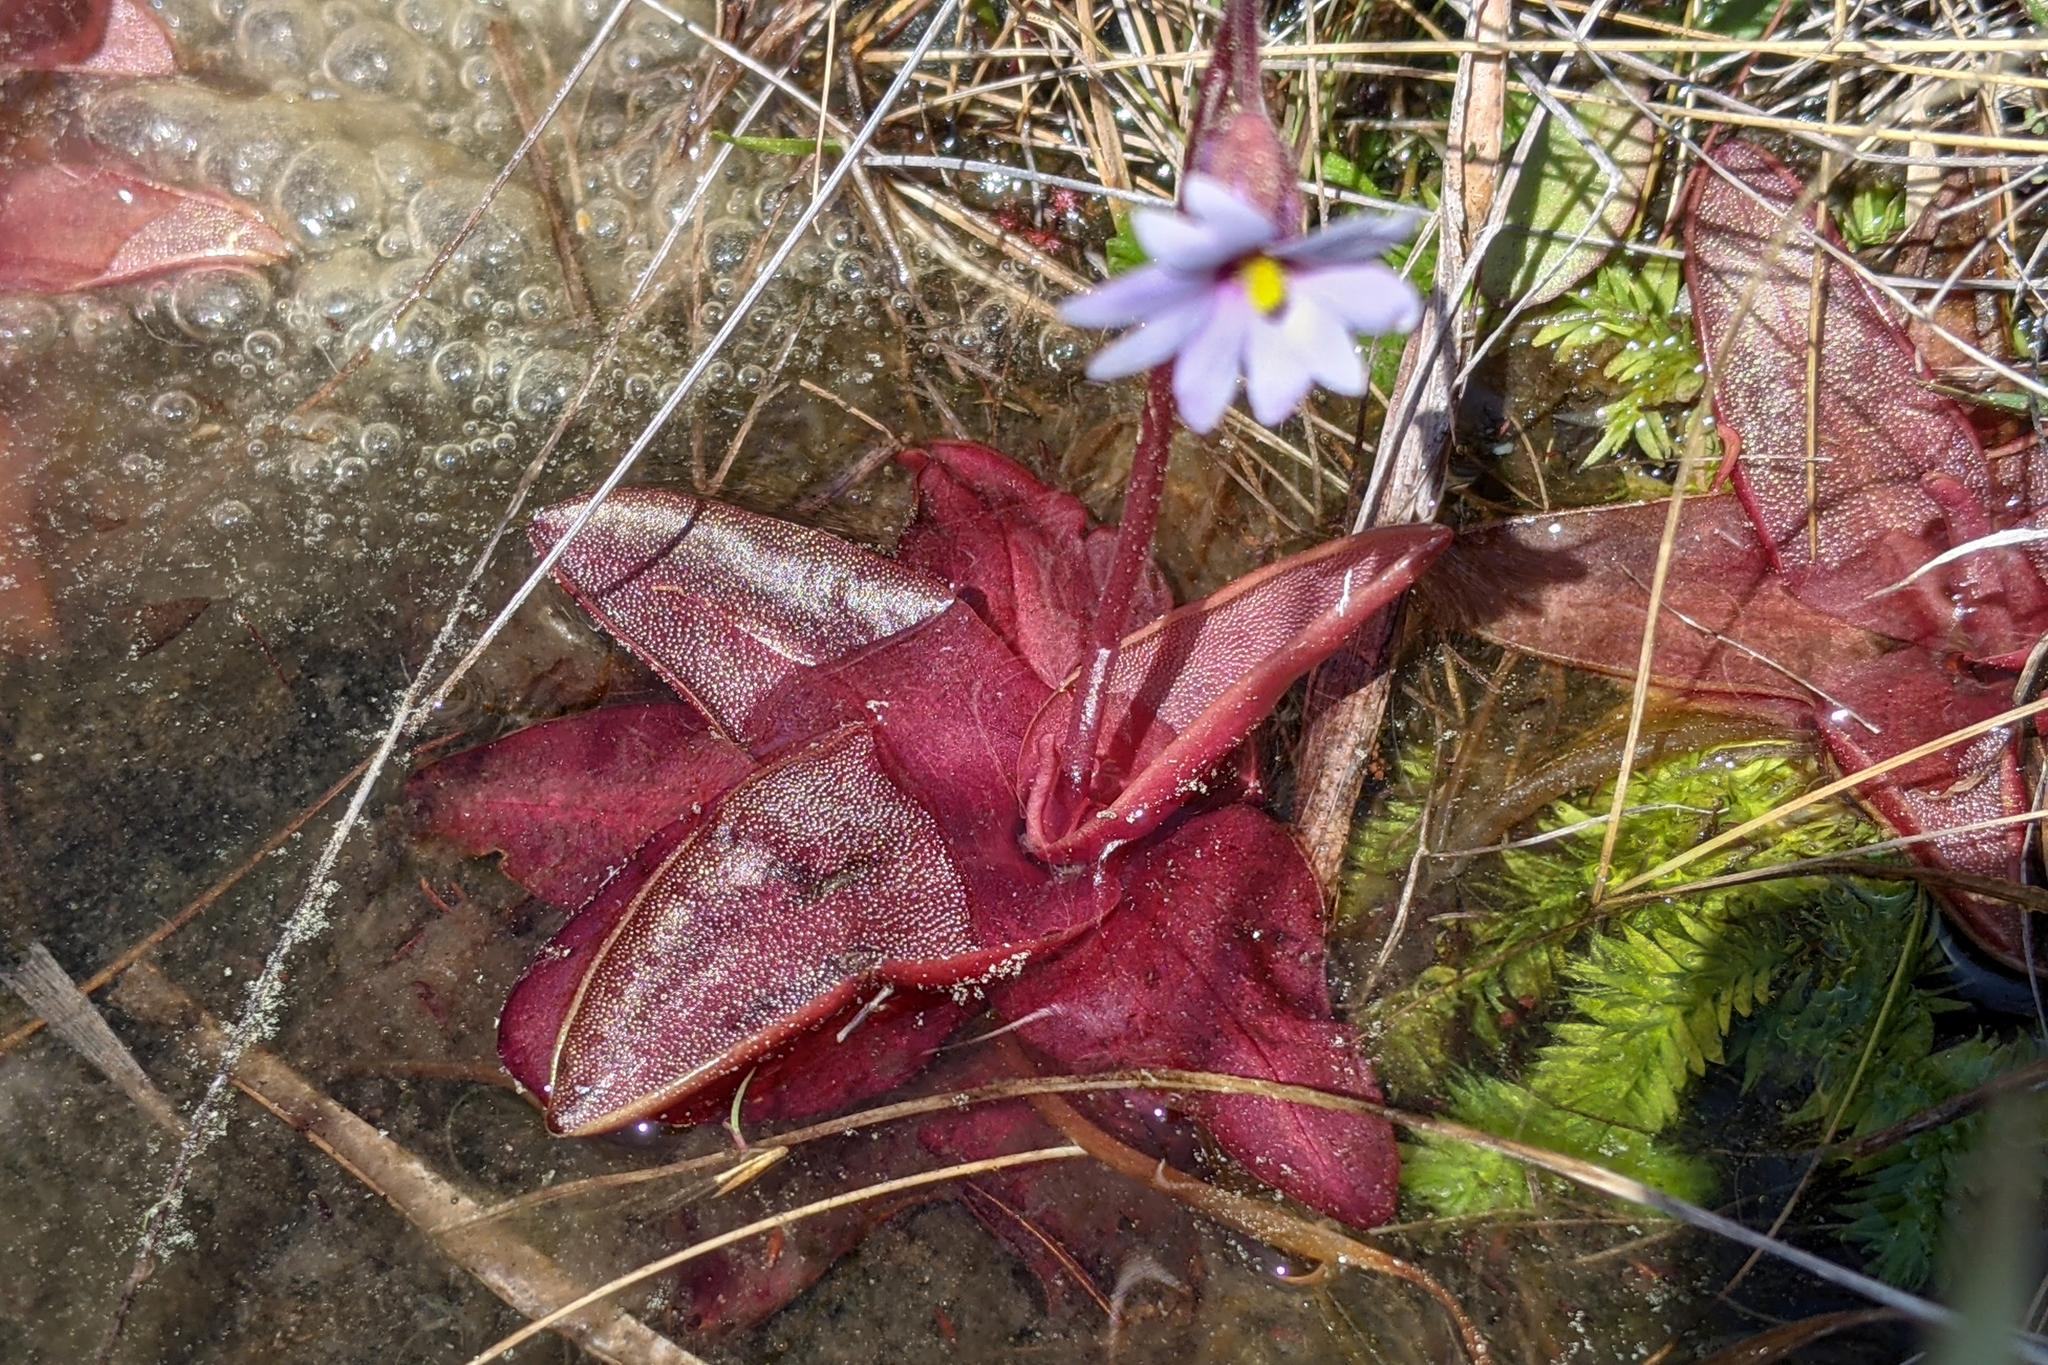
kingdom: Plantae
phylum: Tracheophyta
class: Magnoliopsida
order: Lamiales
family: Lentibulariaceae
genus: Pinguicula
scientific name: Pinguicula planifolia
